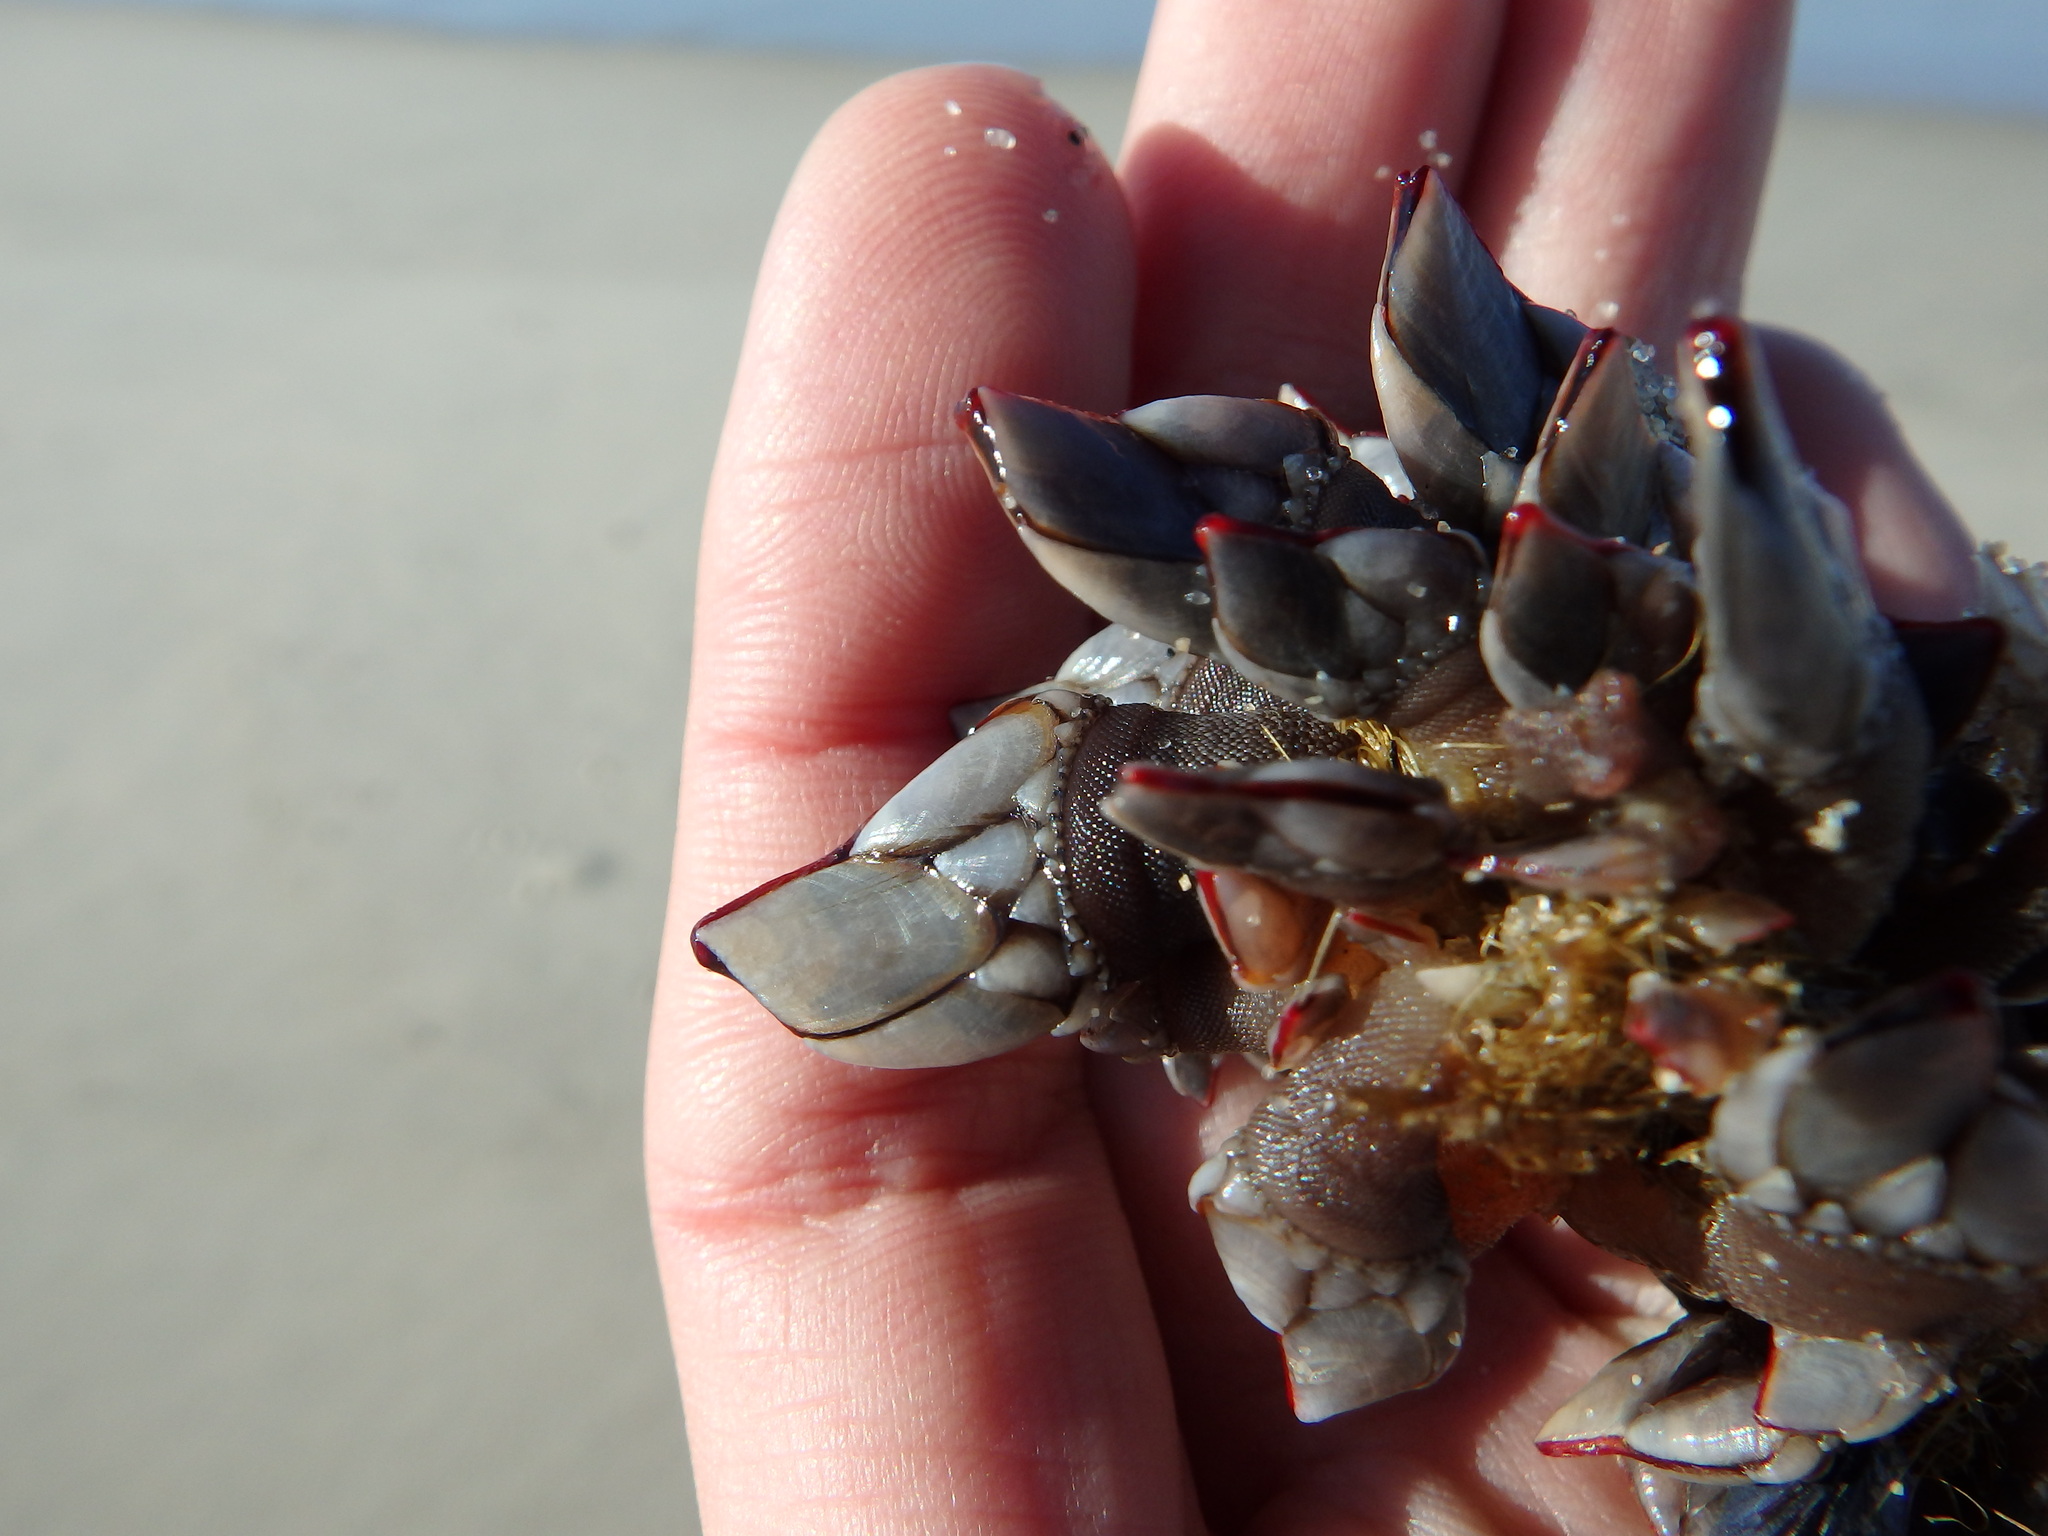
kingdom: Animalia
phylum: Arthropoda
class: Maxillopoda
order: Pedunculata
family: Pollicipedidae
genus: Pollicipes
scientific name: Pollicipes pollicipes
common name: Gooseneck barnacle
